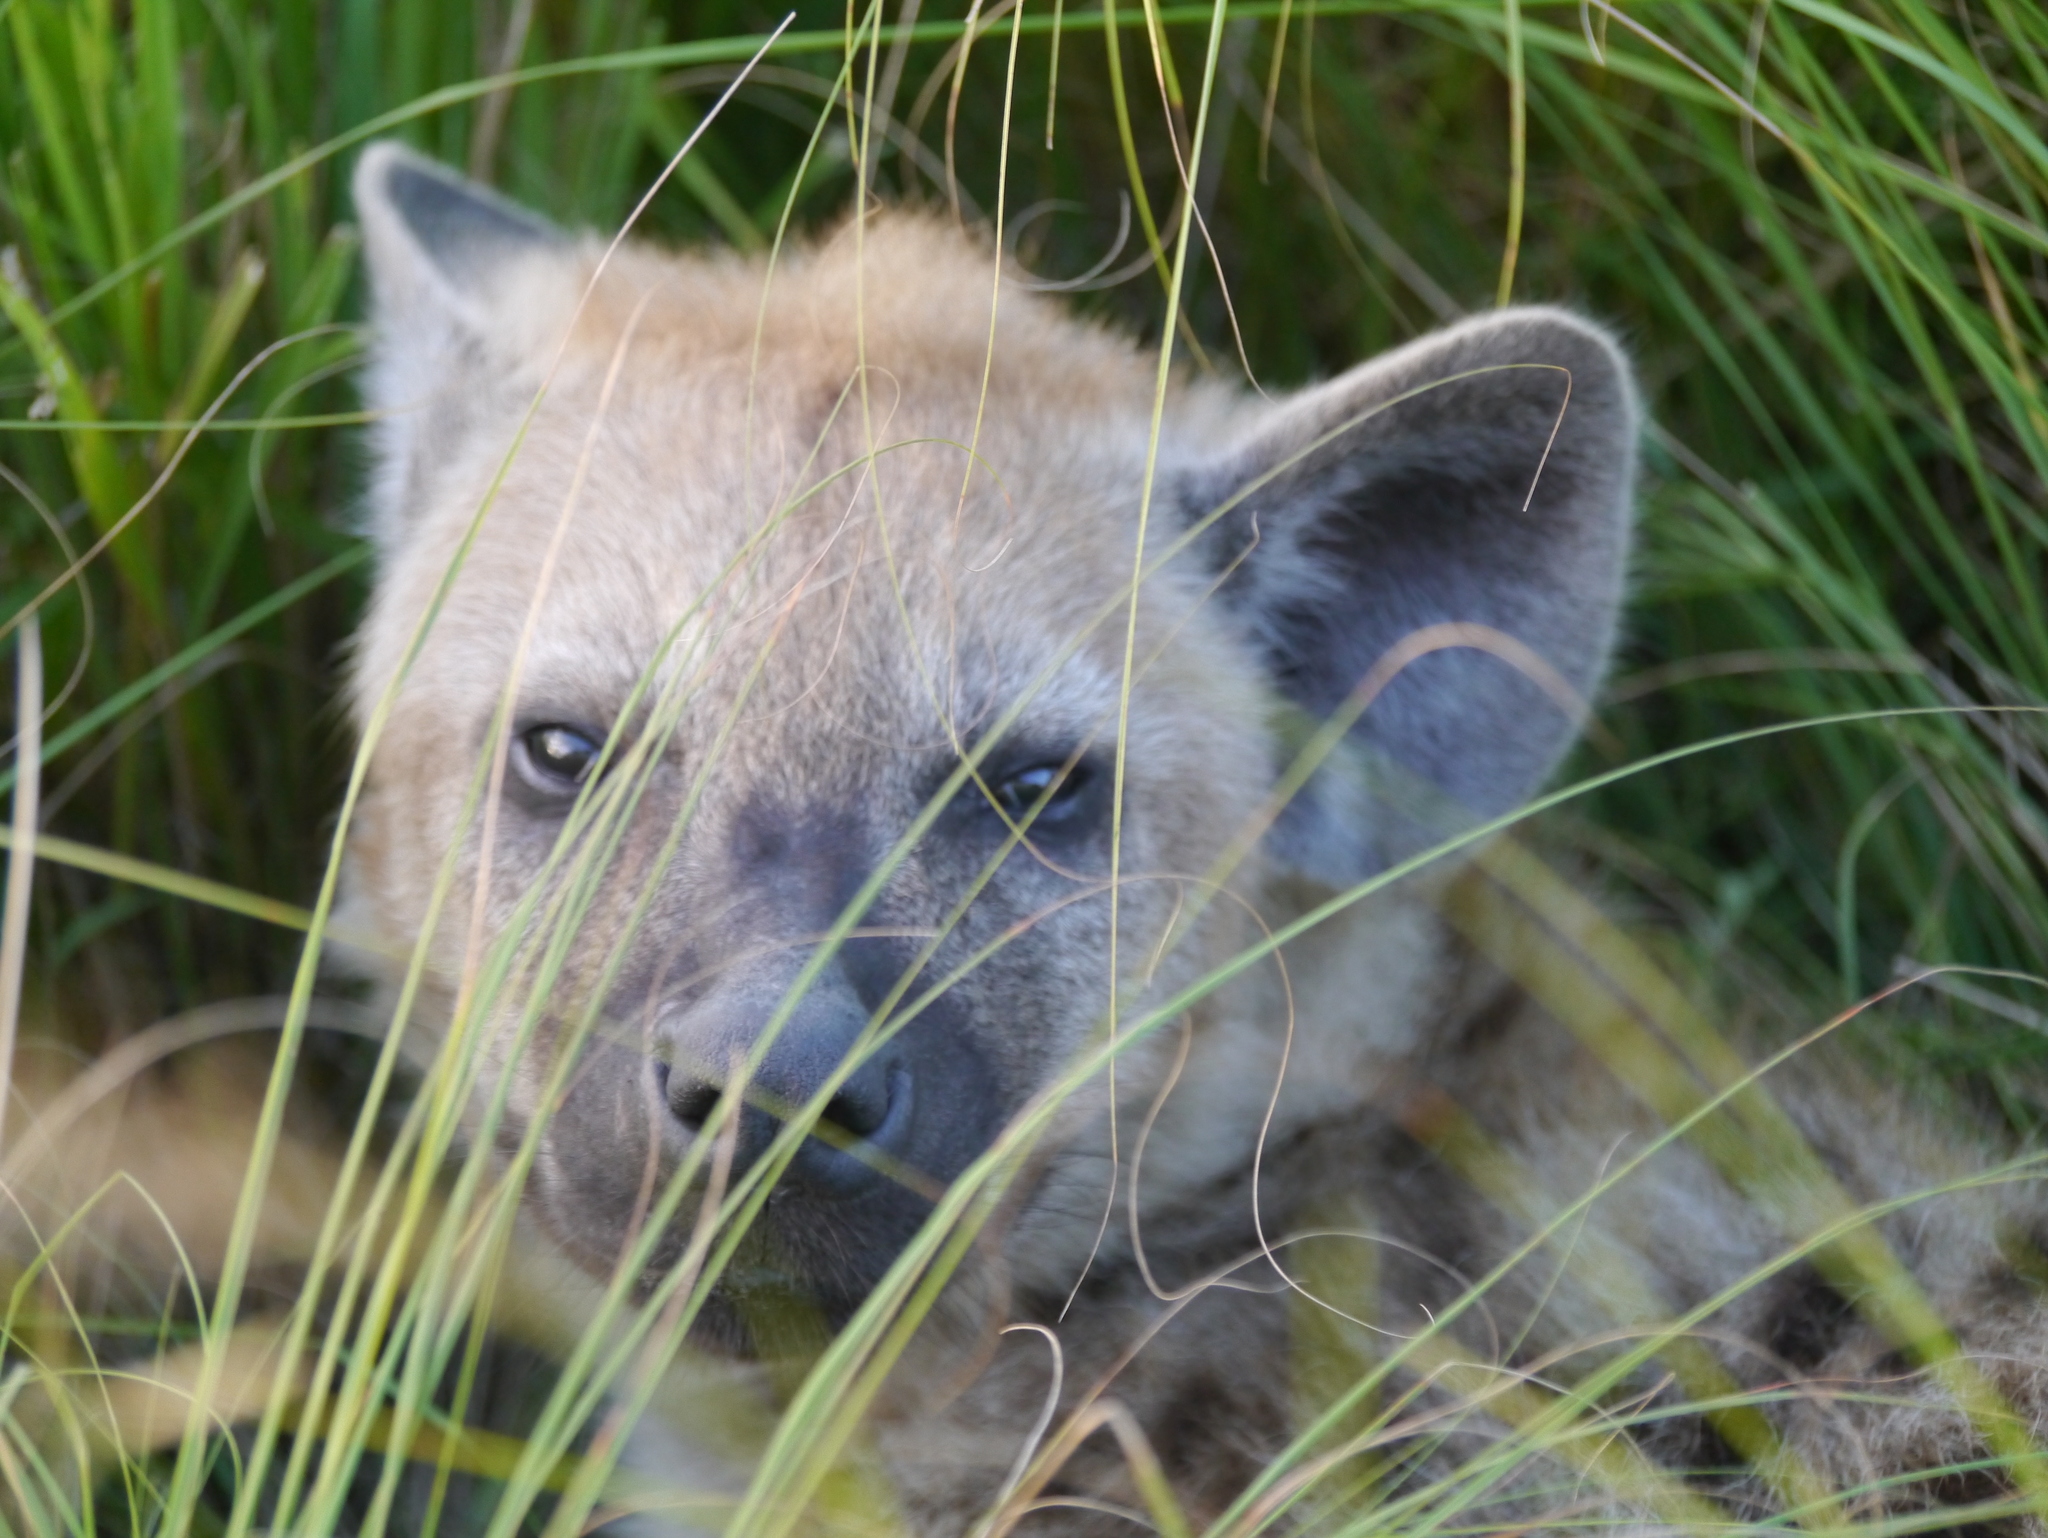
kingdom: Animalia
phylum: Chordata
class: Mammalia
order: Carnivora
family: Hyaenidae
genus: Crocuta
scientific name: Crocuta crocuta
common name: Spotted hyaena
